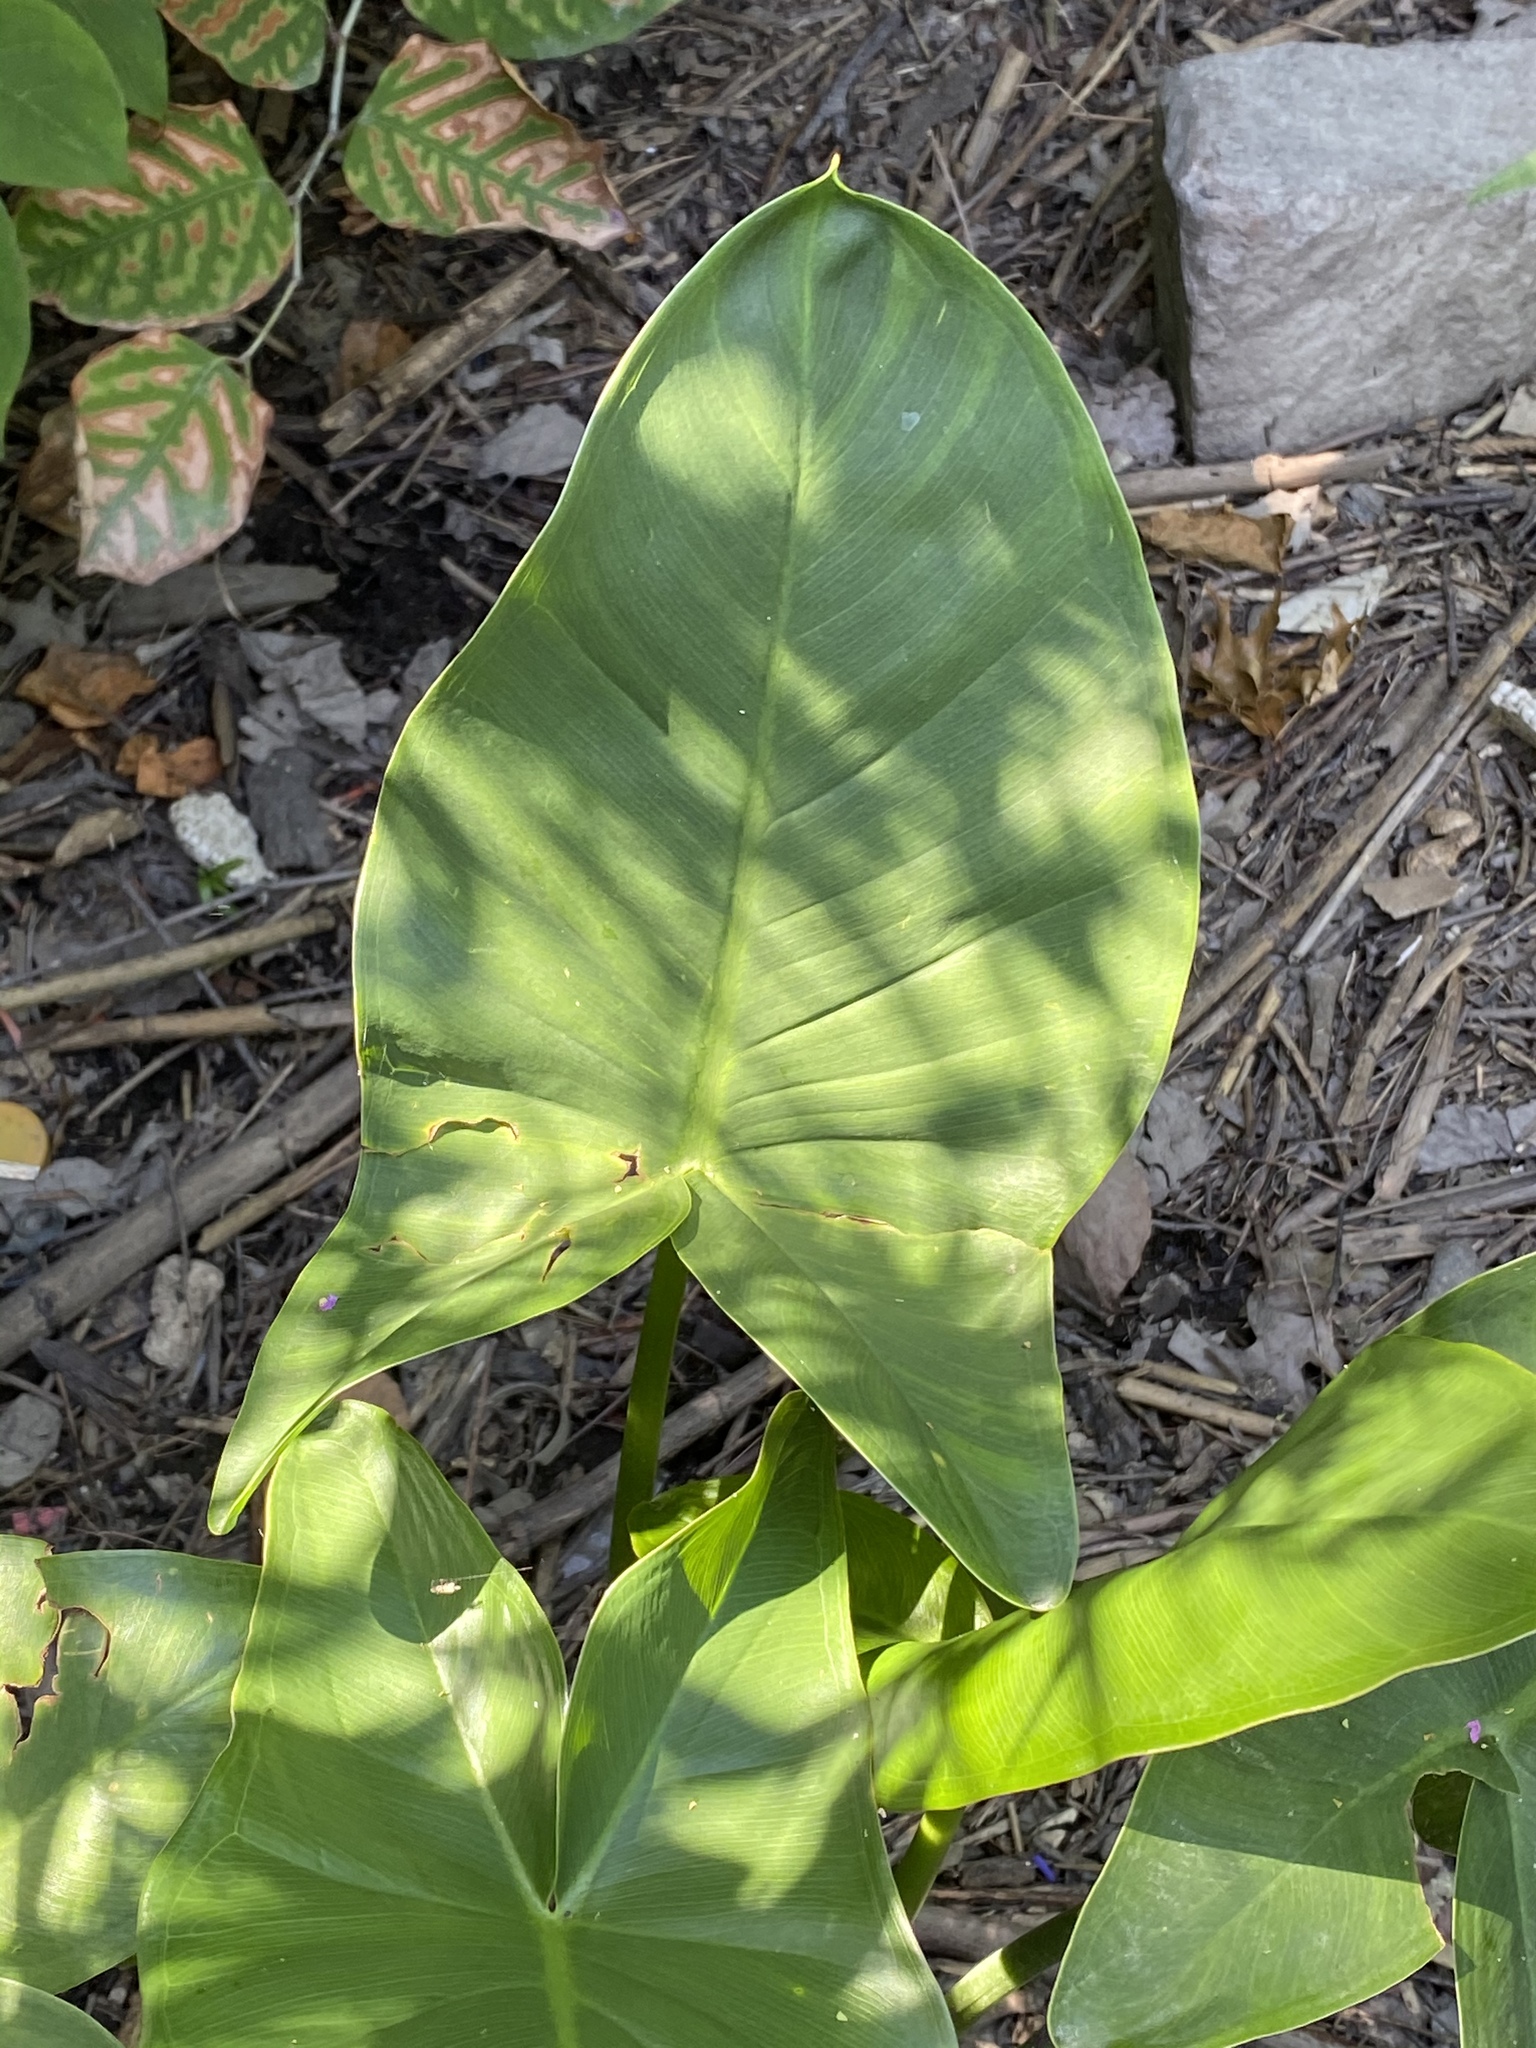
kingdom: Plantae
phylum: Tracheophyta
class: Liliopsida
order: Alismatales
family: Araceae
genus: Peltandra
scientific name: Peltandra virginica
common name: Arrow arum
